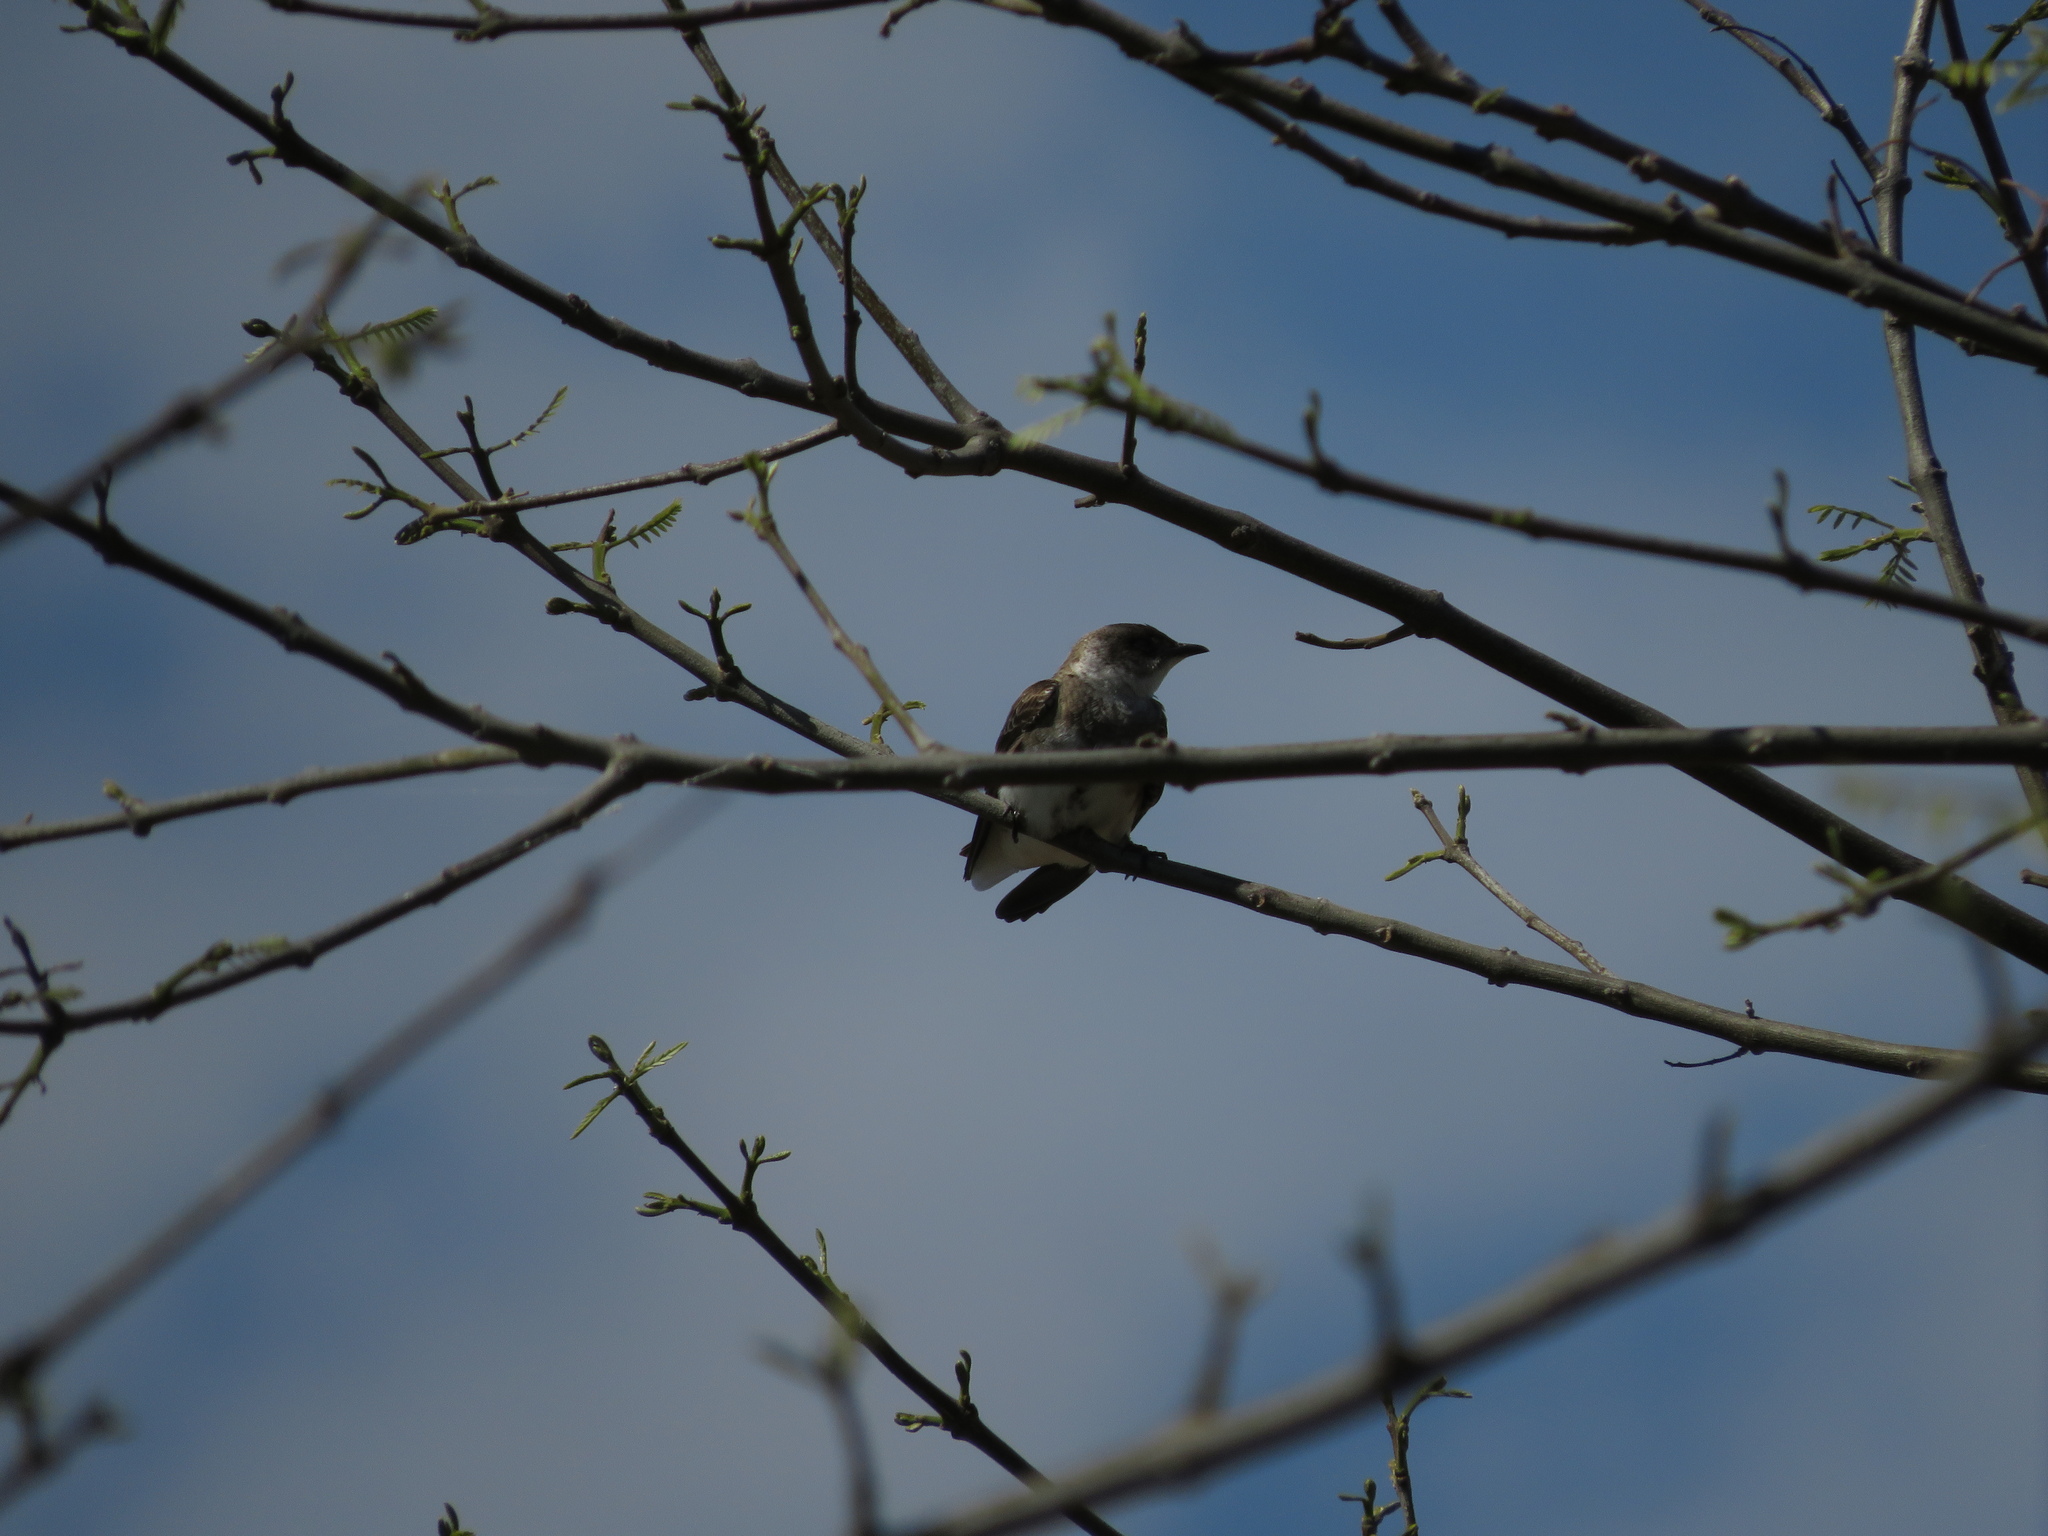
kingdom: Animalia
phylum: Chordata
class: Aves
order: Passeriformes
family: Hirundinidae
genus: Progne
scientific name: Progne tapera
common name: Brown-chested martin
